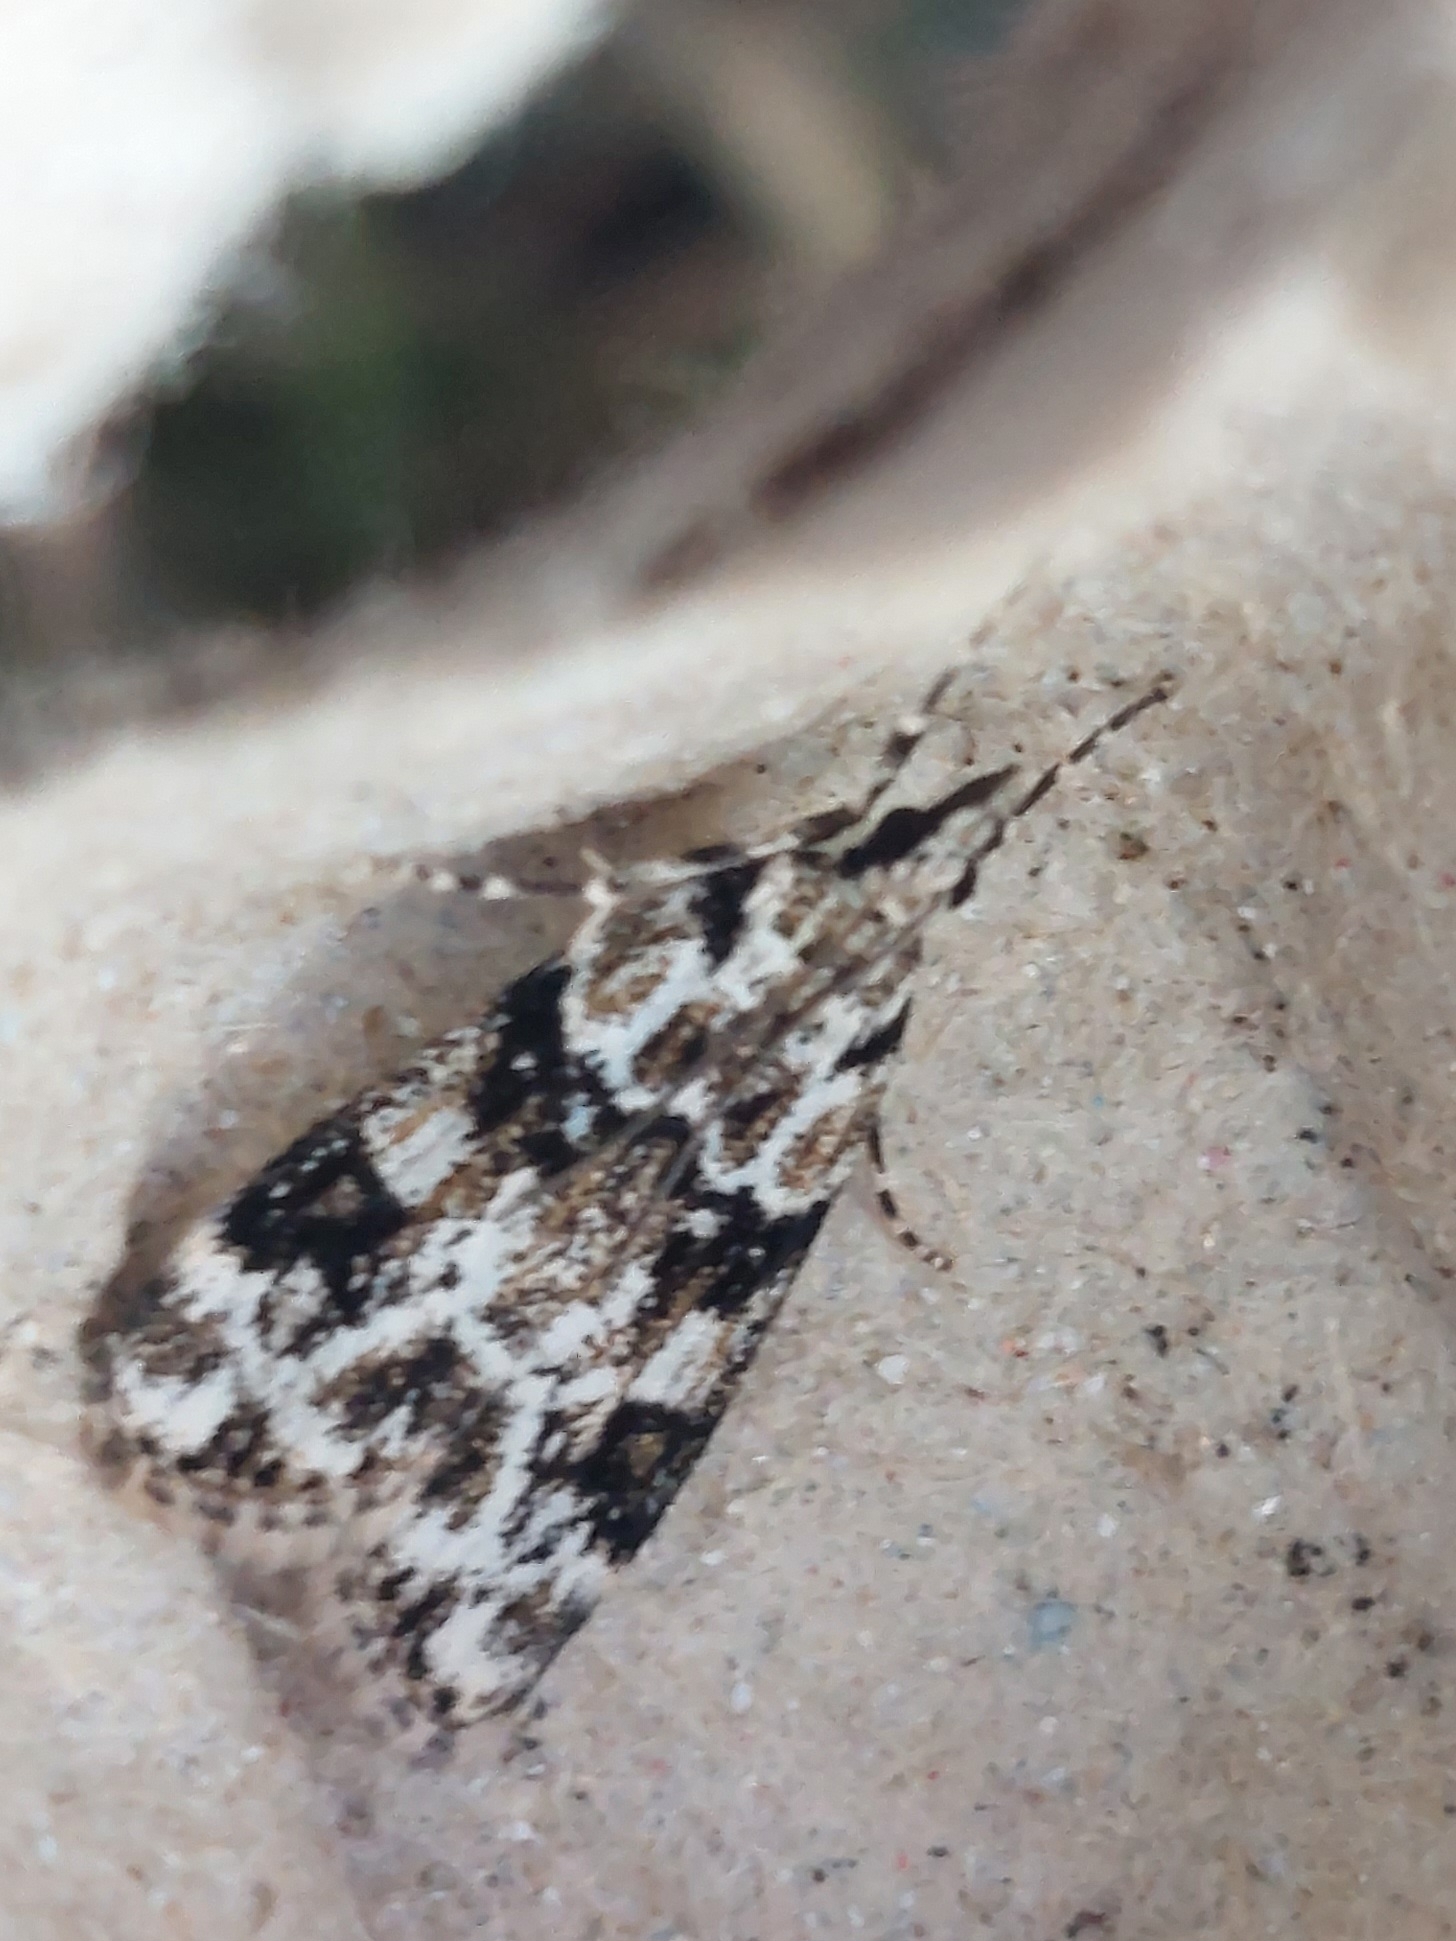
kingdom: Animalia
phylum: Arthropoda
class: Insecta
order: Lepidoptera
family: Crambidae
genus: Eudonia
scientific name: Eudonia delunella
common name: Pied grey
